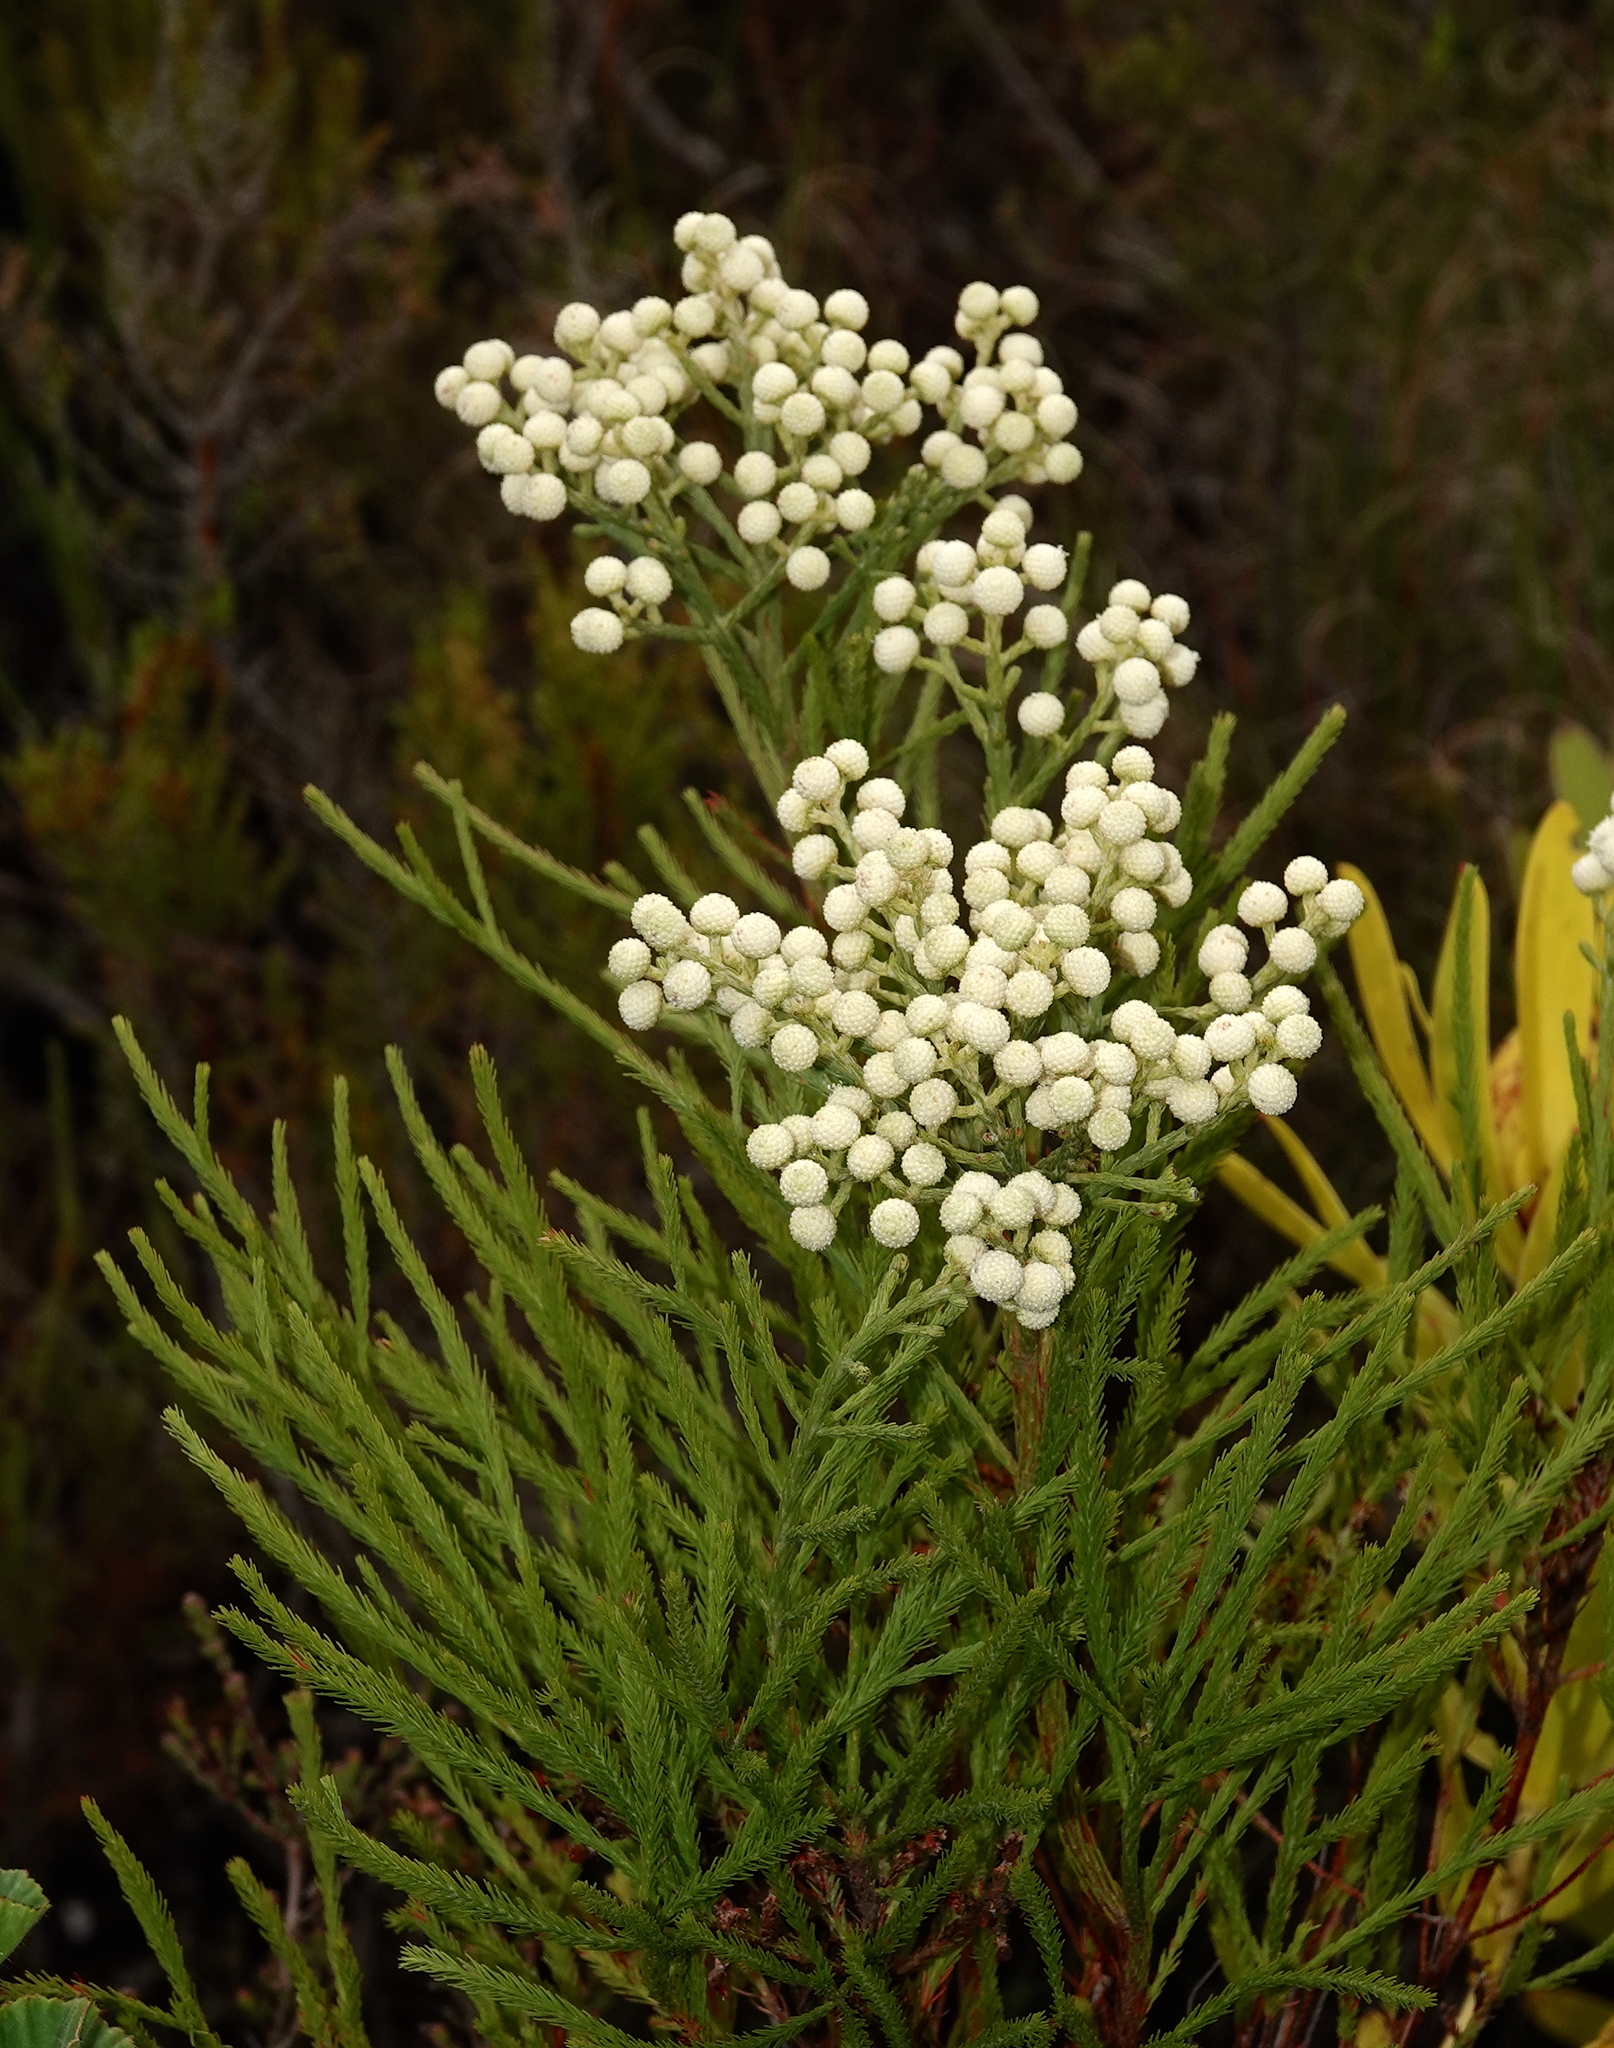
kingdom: Plantae
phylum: Tracheophyta
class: Magnoliopsida
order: Bruniales
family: Bruniaceae
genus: Berzelia
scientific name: Berzelia lanuginosa
